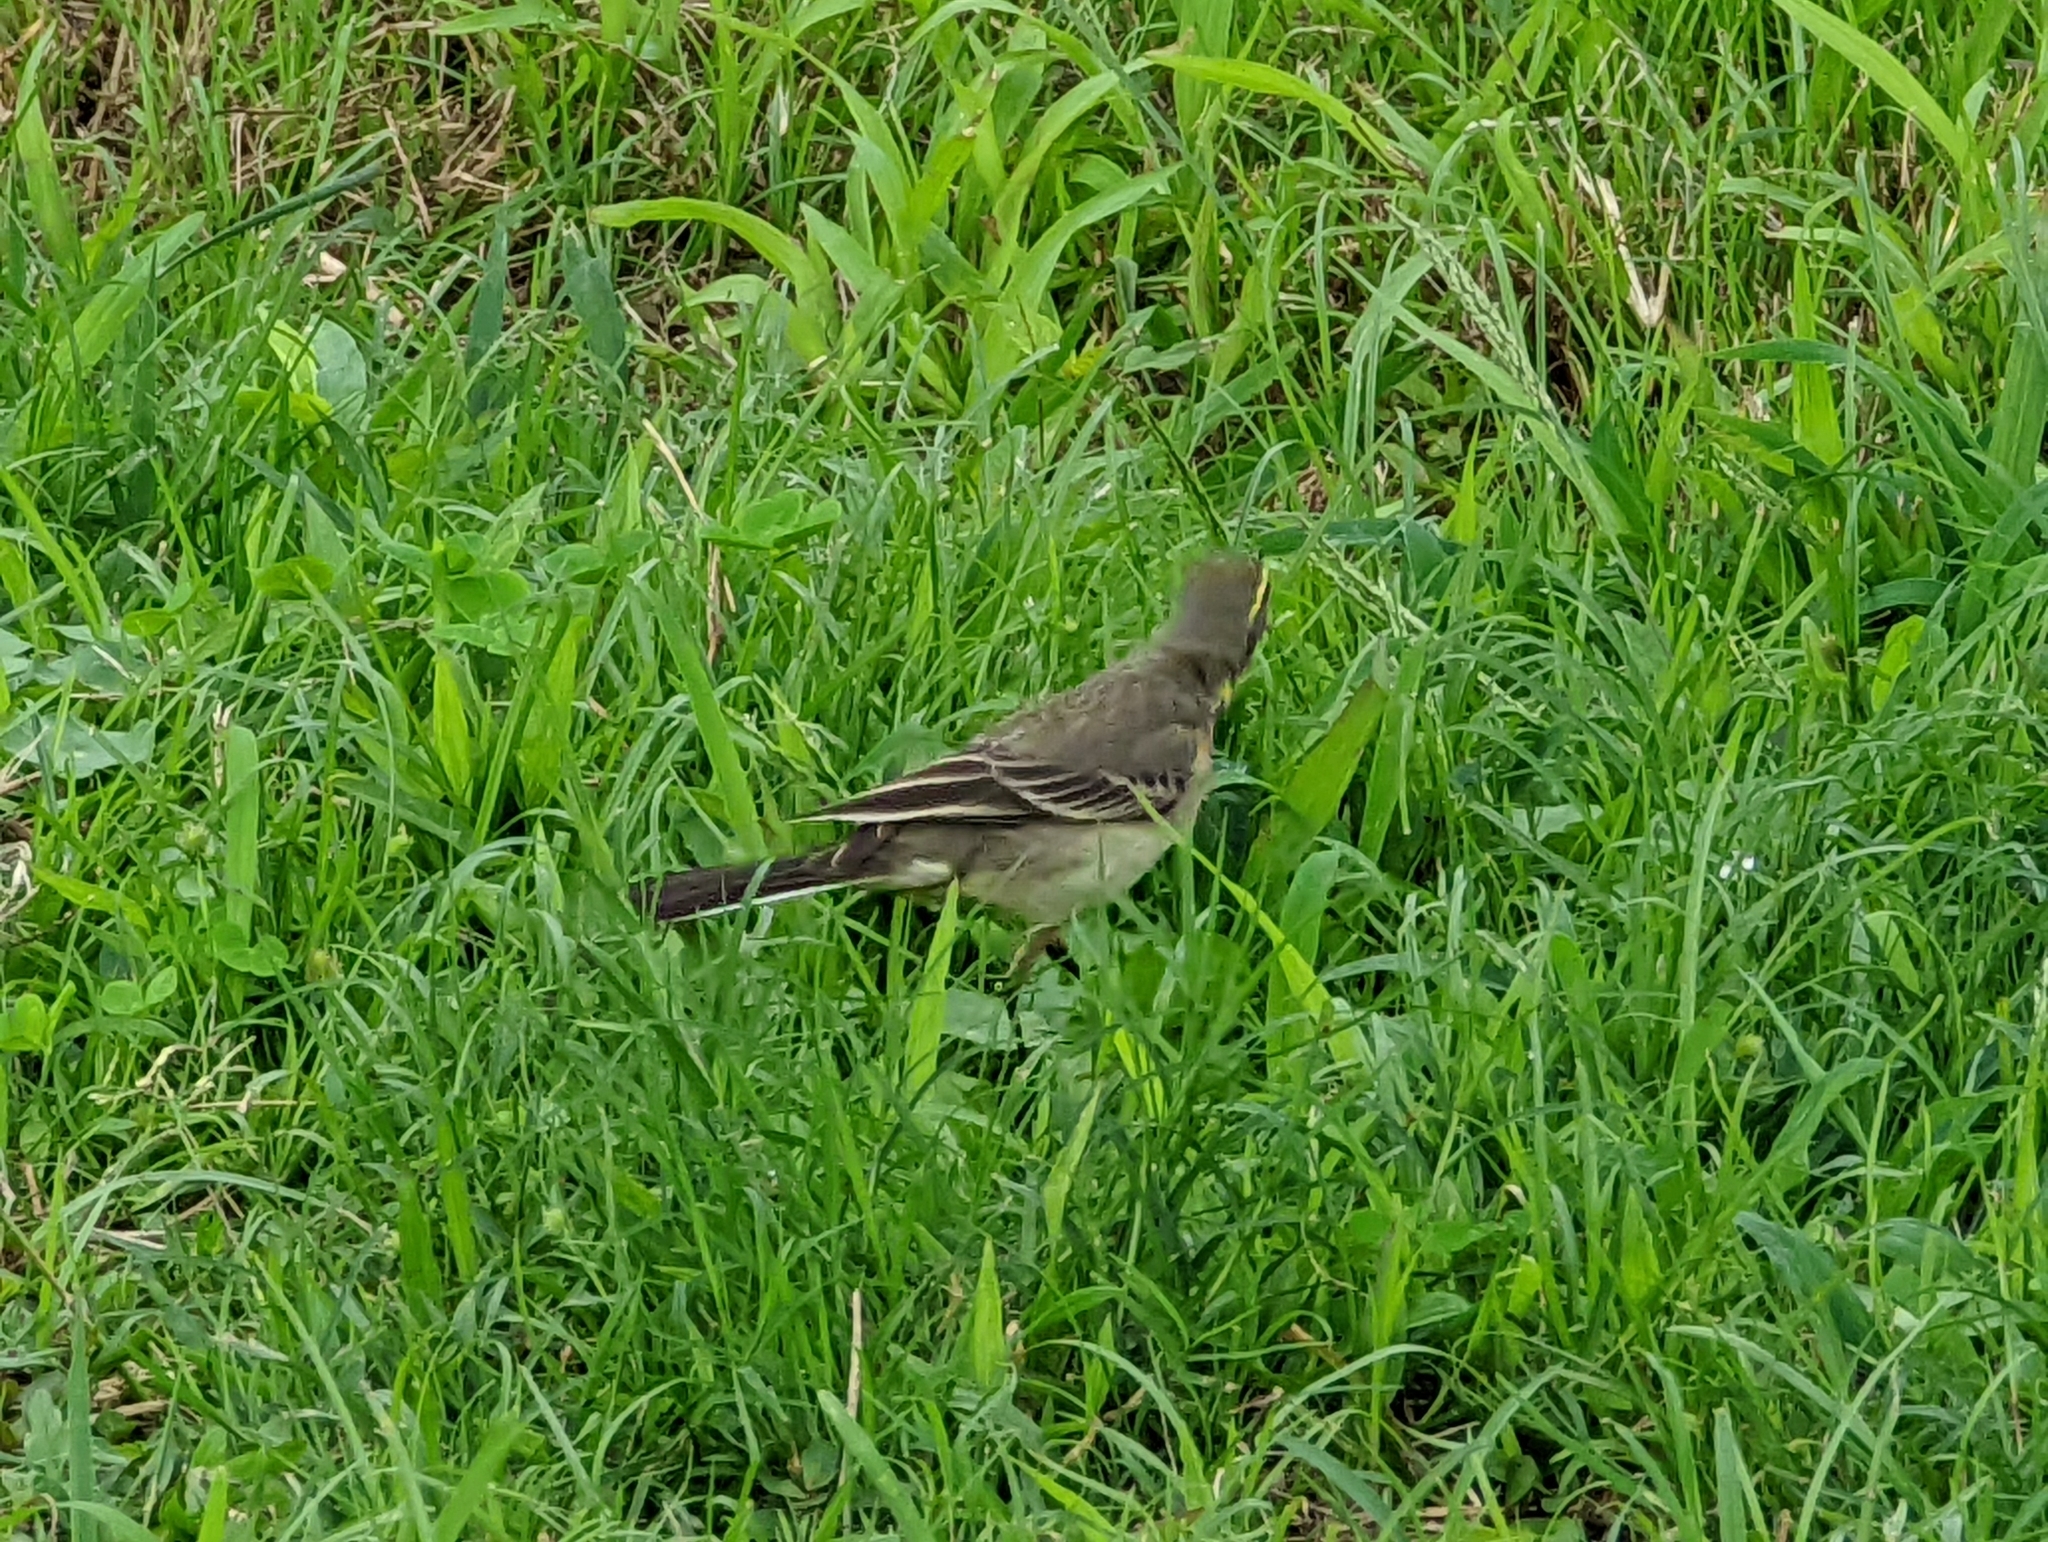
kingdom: Animalia
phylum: Chordata
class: Aves
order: Passeriformes
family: Motacillidae
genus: Motacilla
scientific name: Motacilla tschutschensis
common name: Eastern yellow wagtail
